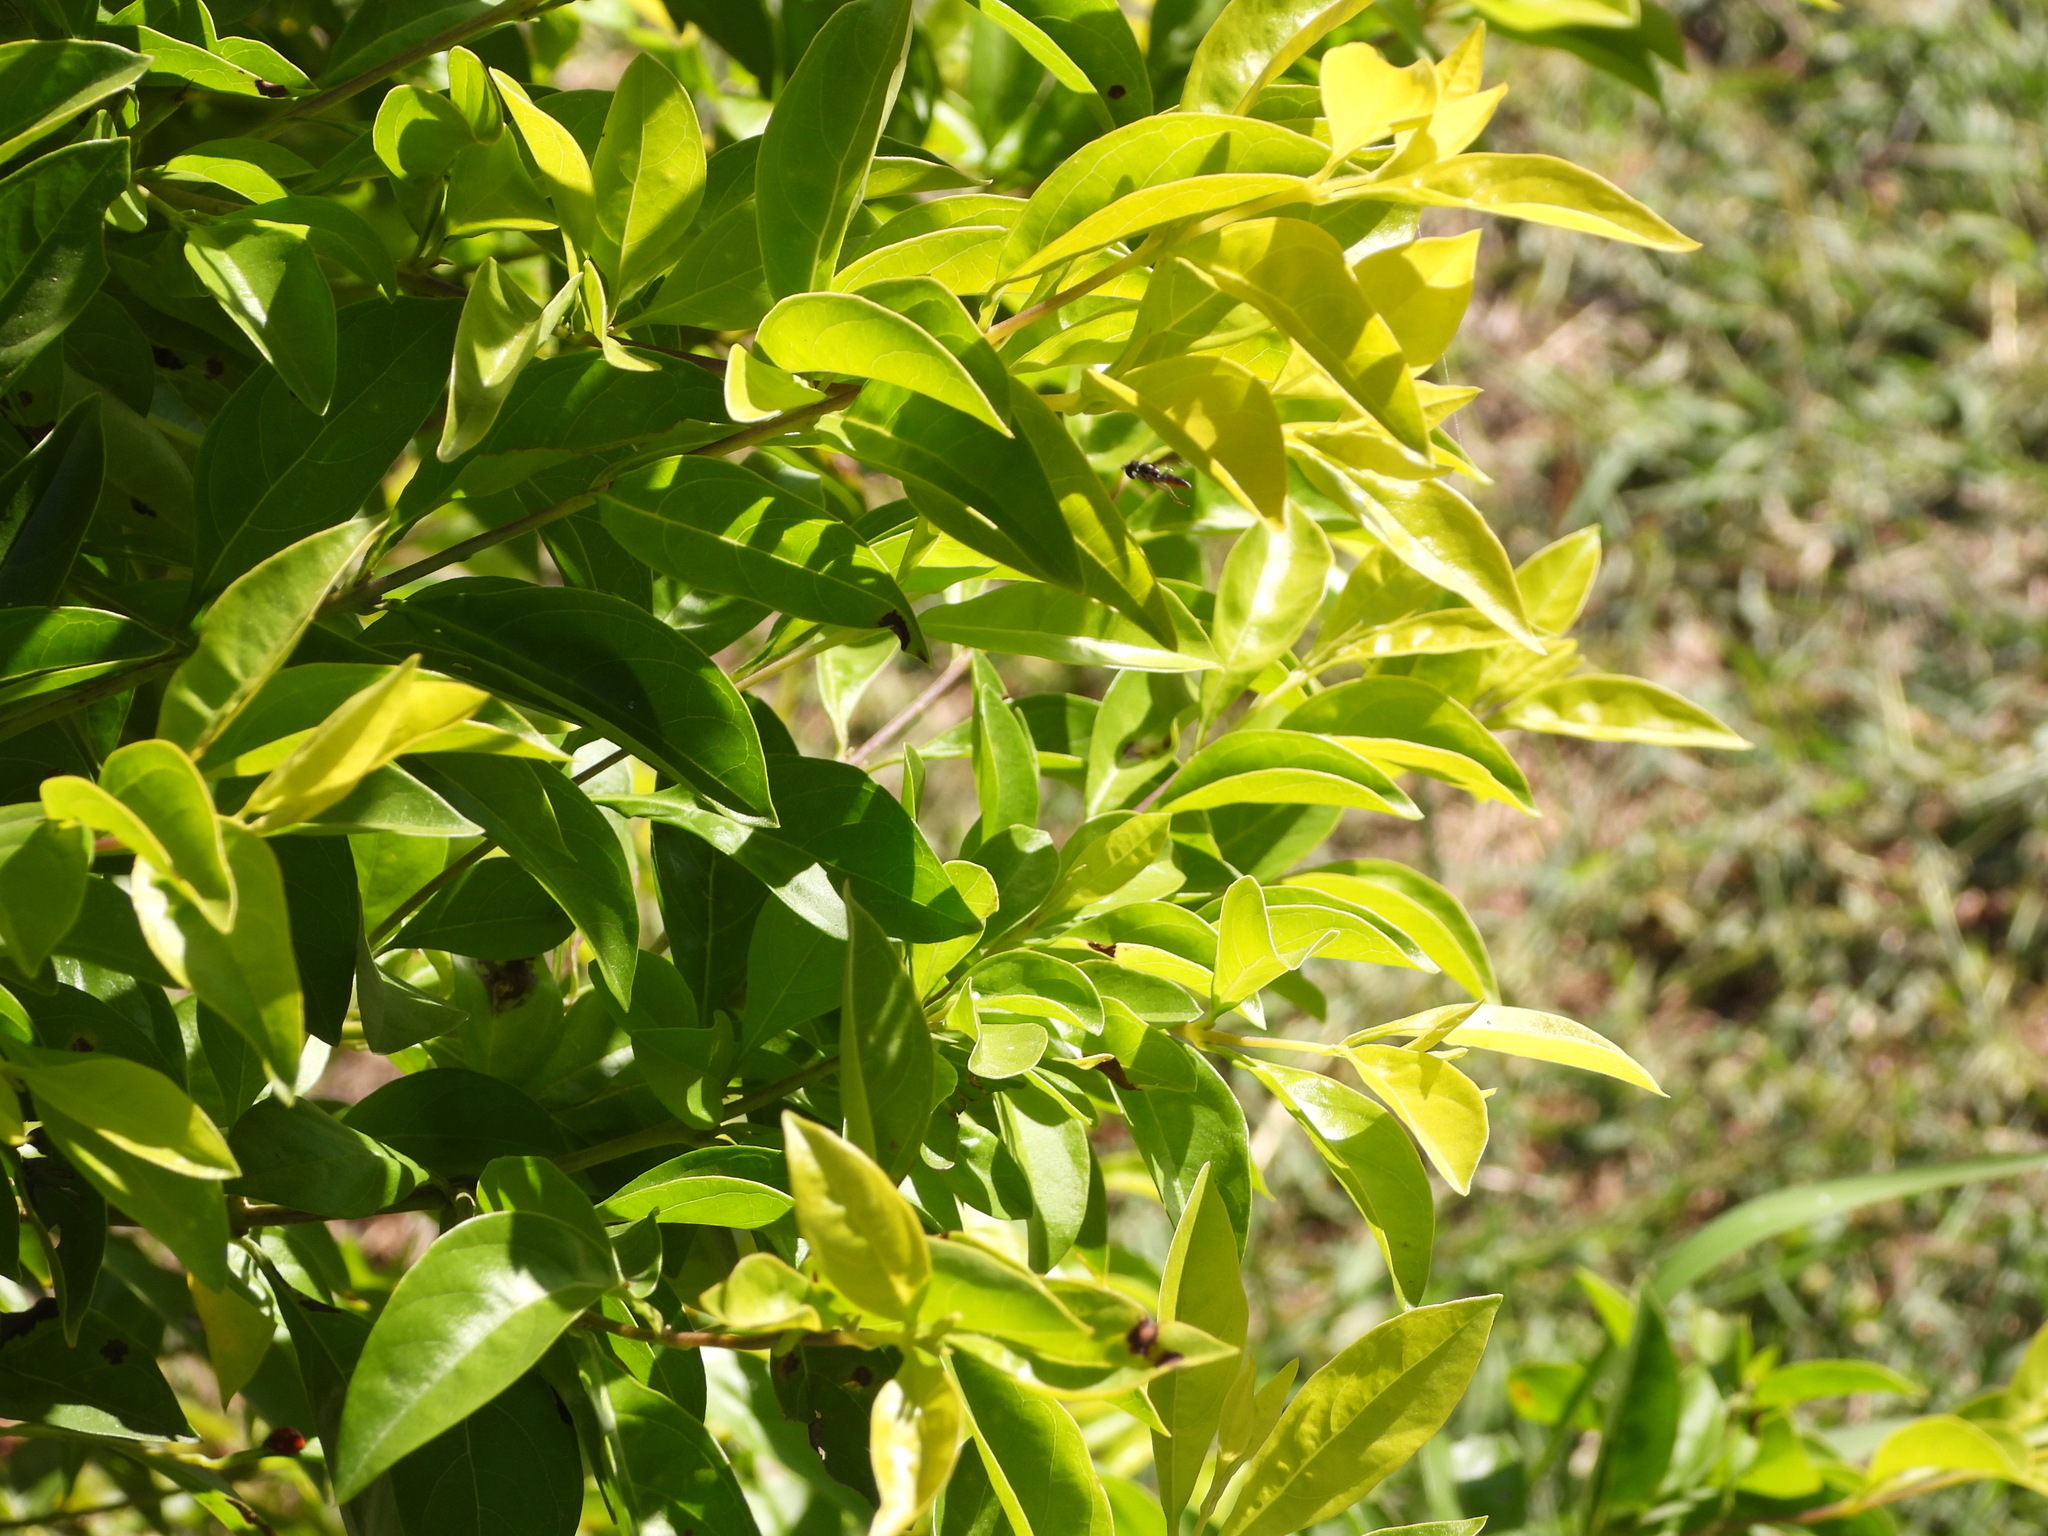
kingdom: Animalia
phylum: Arthropoda
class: Insecta
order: Diptera
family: Syrphidae
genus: Ocyptamus
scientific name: Ocyptamus dimidiatus
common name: Syrphid fly
